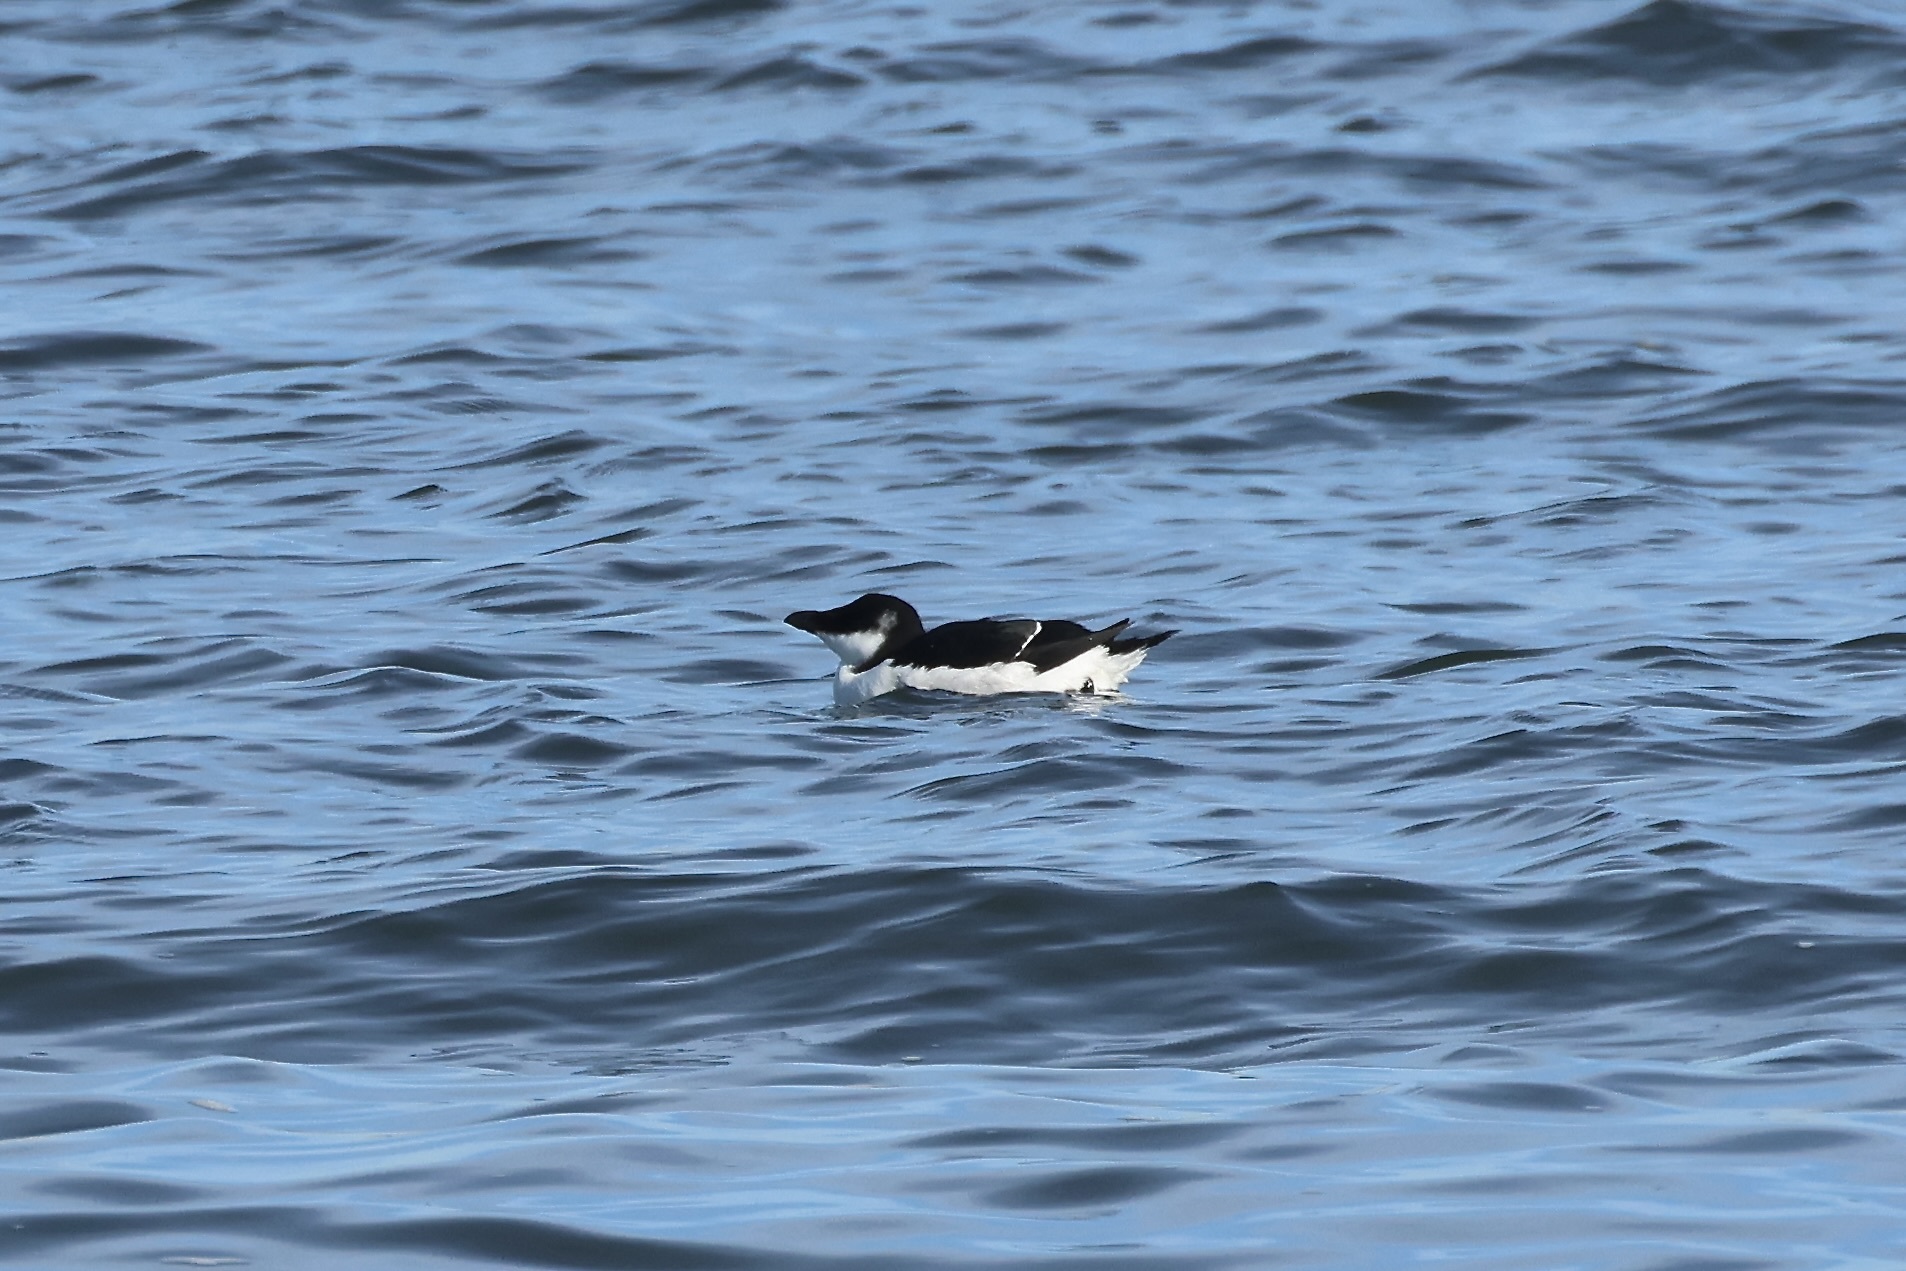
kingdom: Animalia
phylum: Chordata
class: Aves
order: Charadriiformes
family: Alcidae
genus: Alca
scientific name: Alca torda
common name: Razorbill
